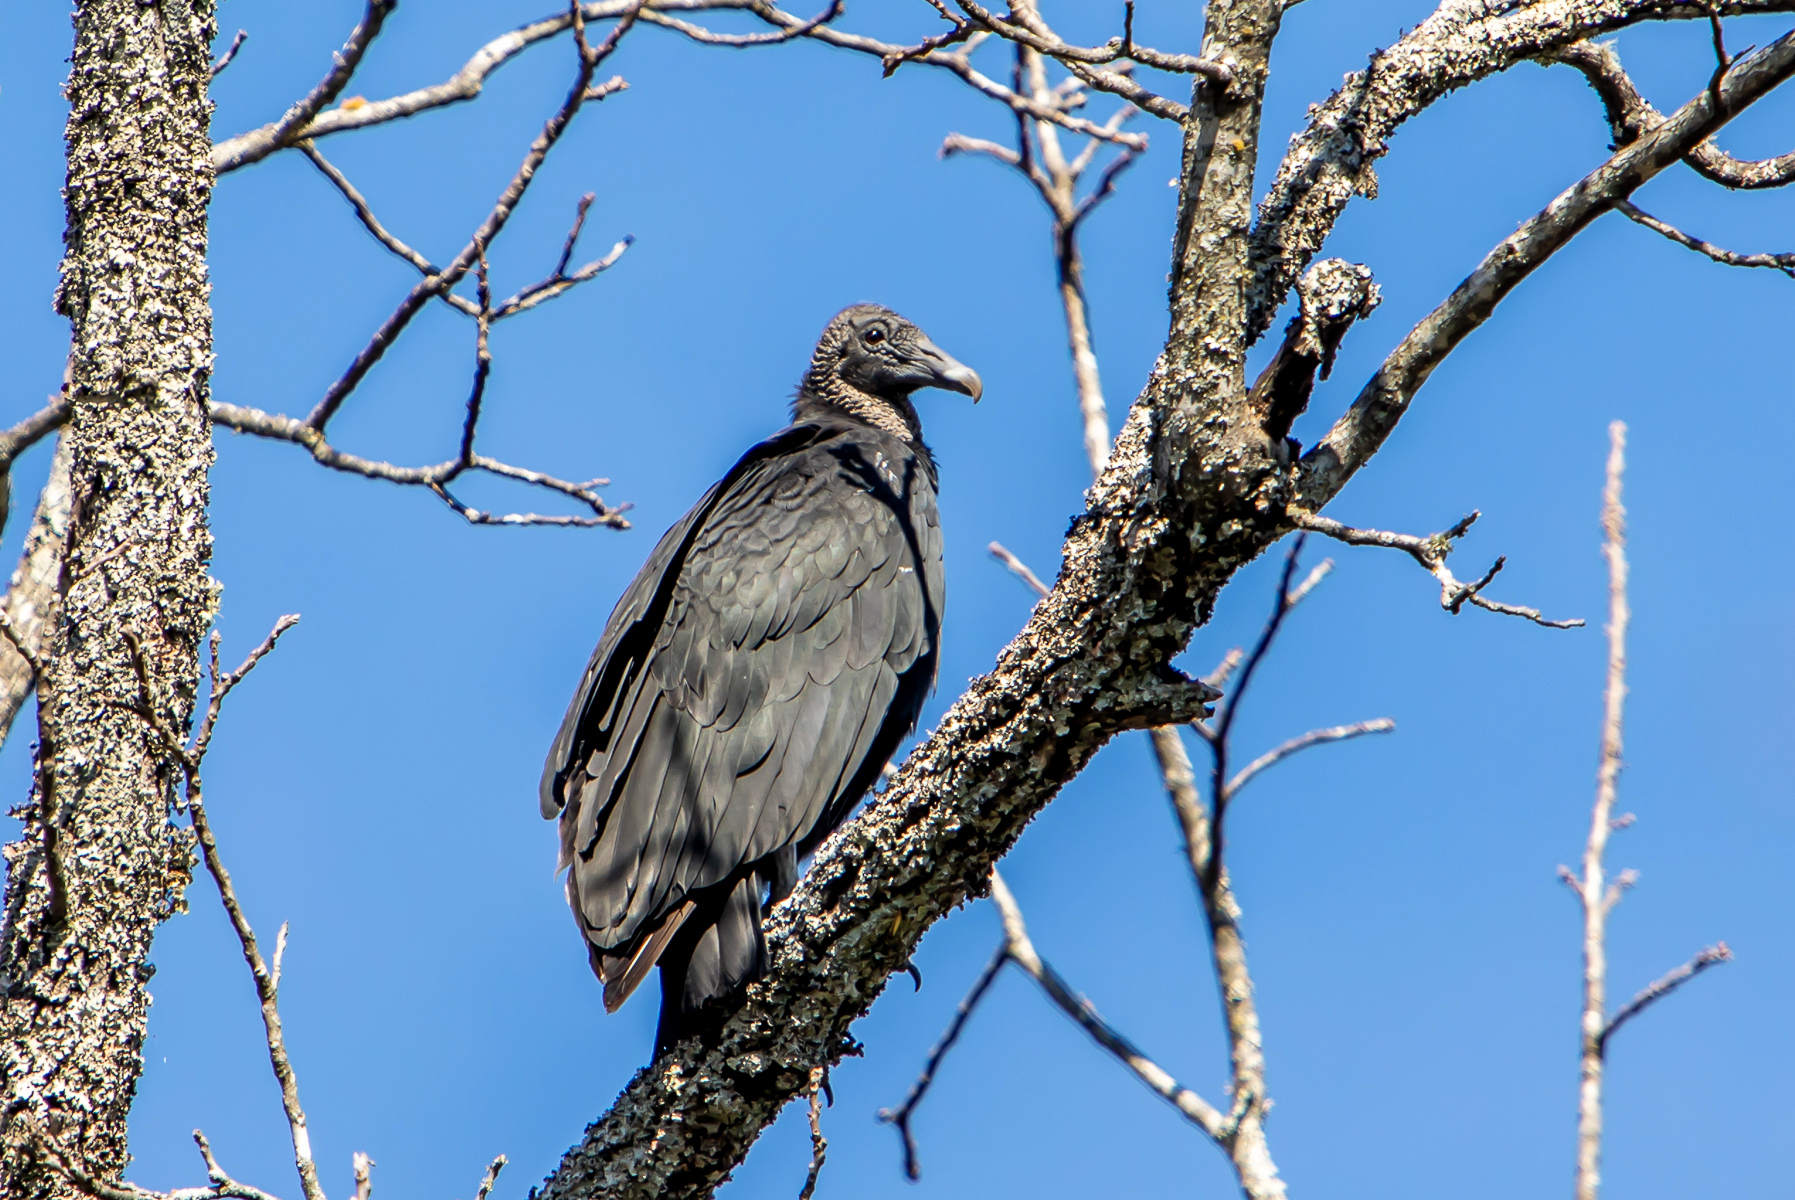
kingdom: Animalia
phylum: Chordata
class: Aves
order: Accipitriformes
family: Cathartidae
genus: Coragyps
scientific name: Coragyps atratus
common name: Black vulture
